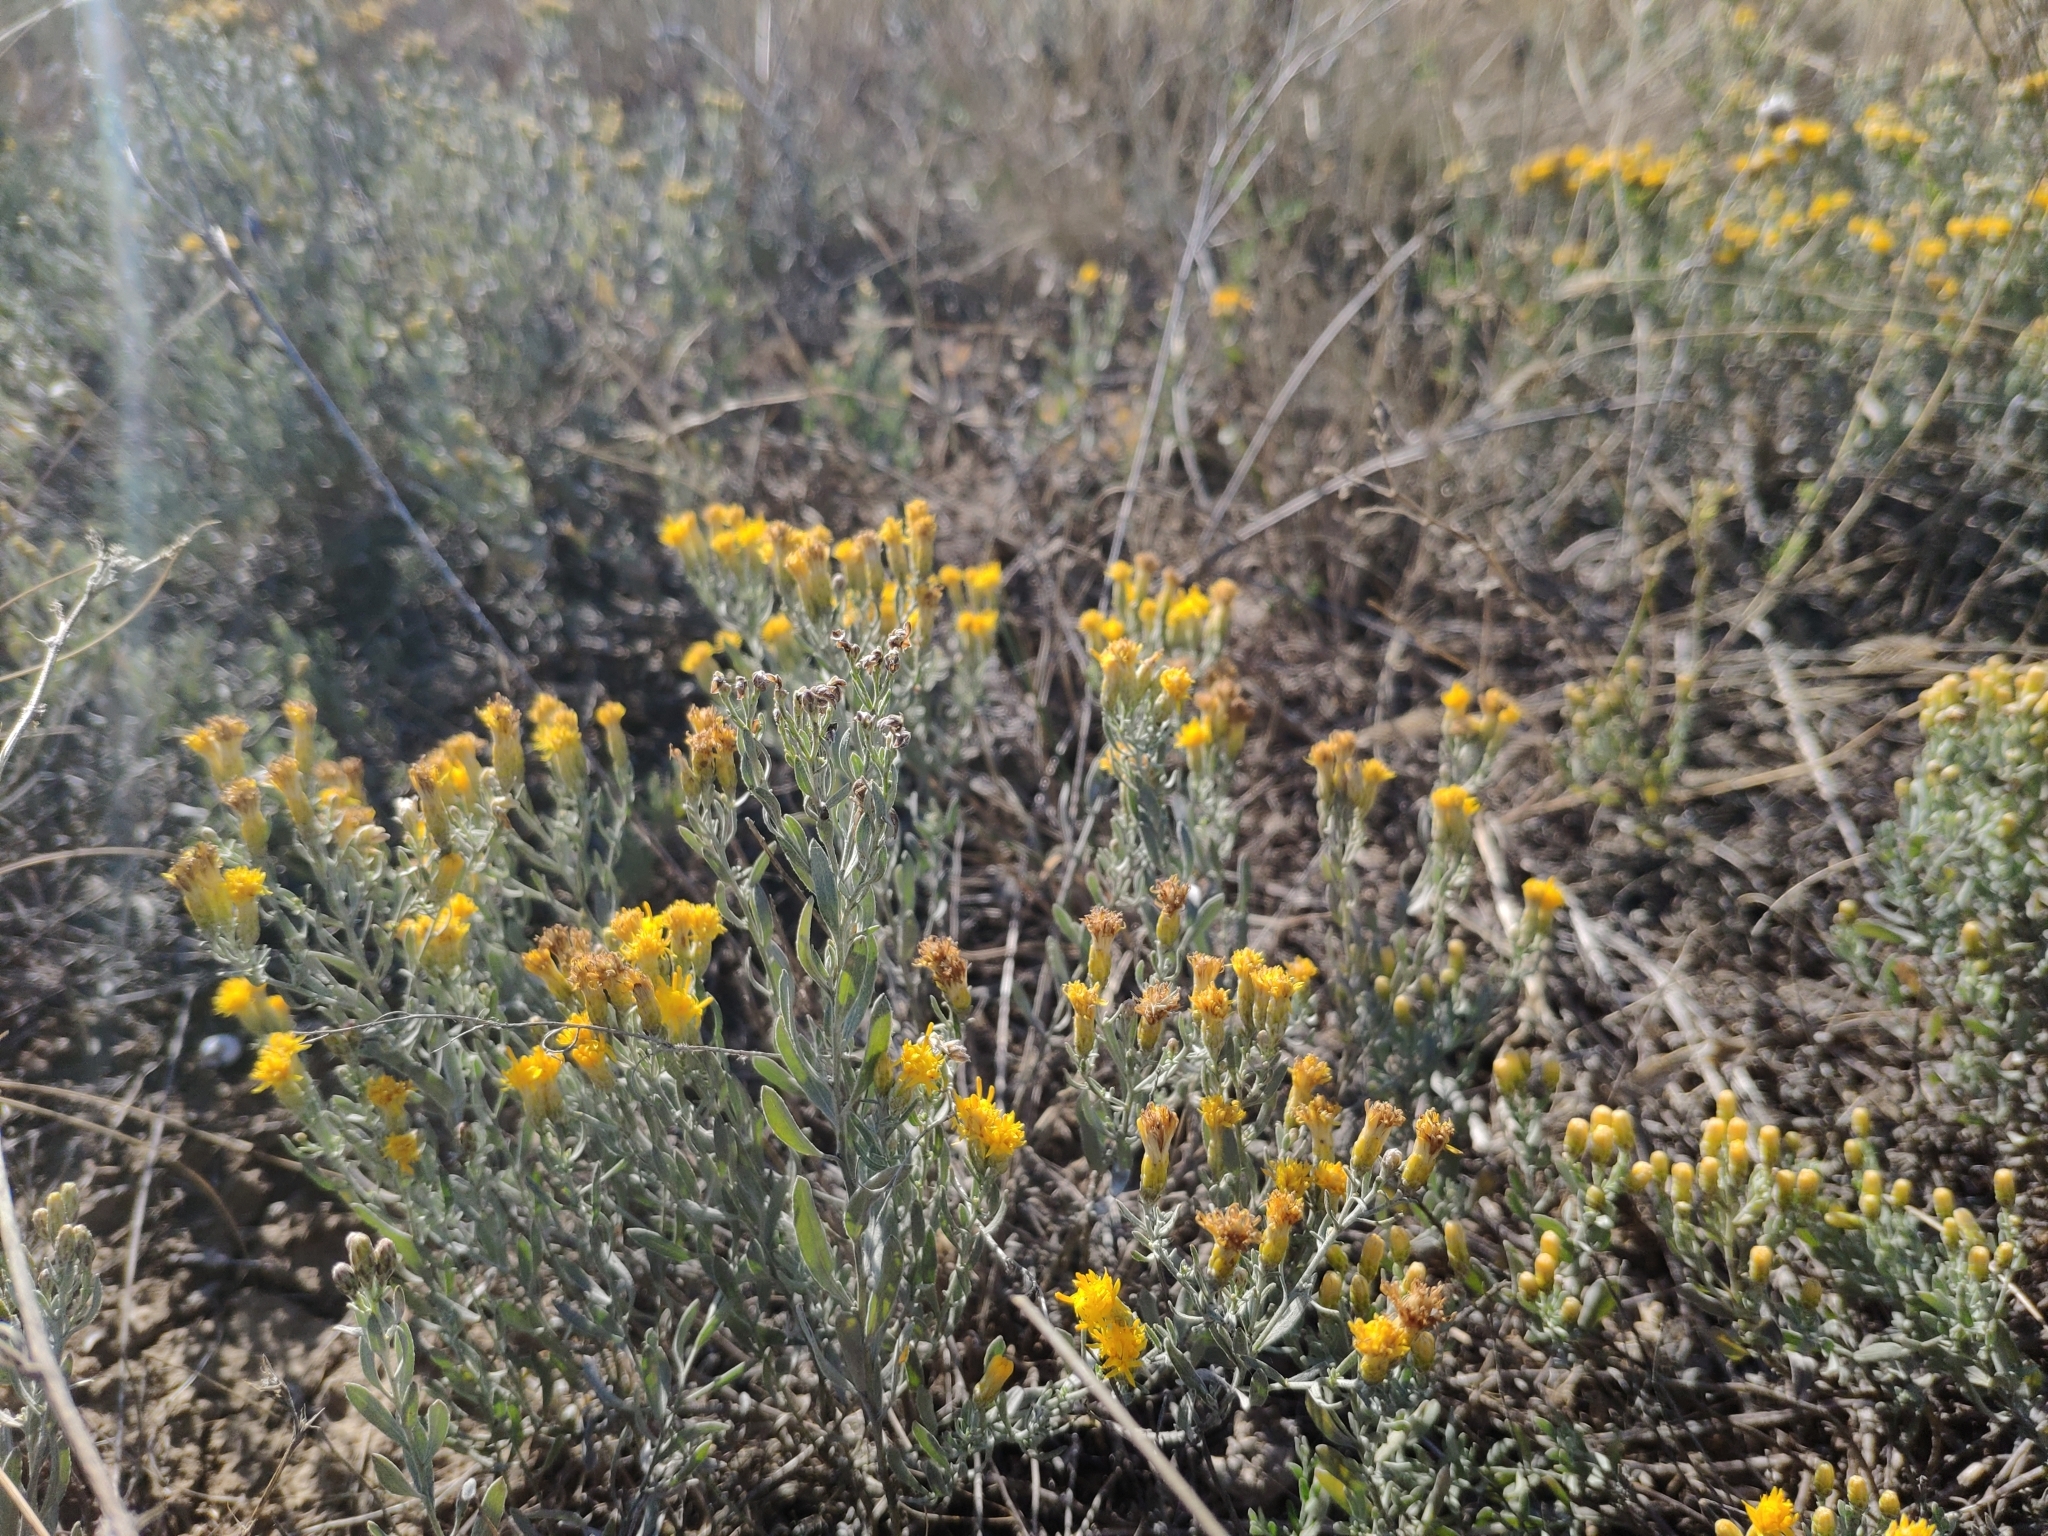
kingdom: Plantae
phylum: Tracheophyta
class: Magnoliopsida
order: Asterales
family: Asteraceae
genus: Galatella
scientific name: Galatella villosa
